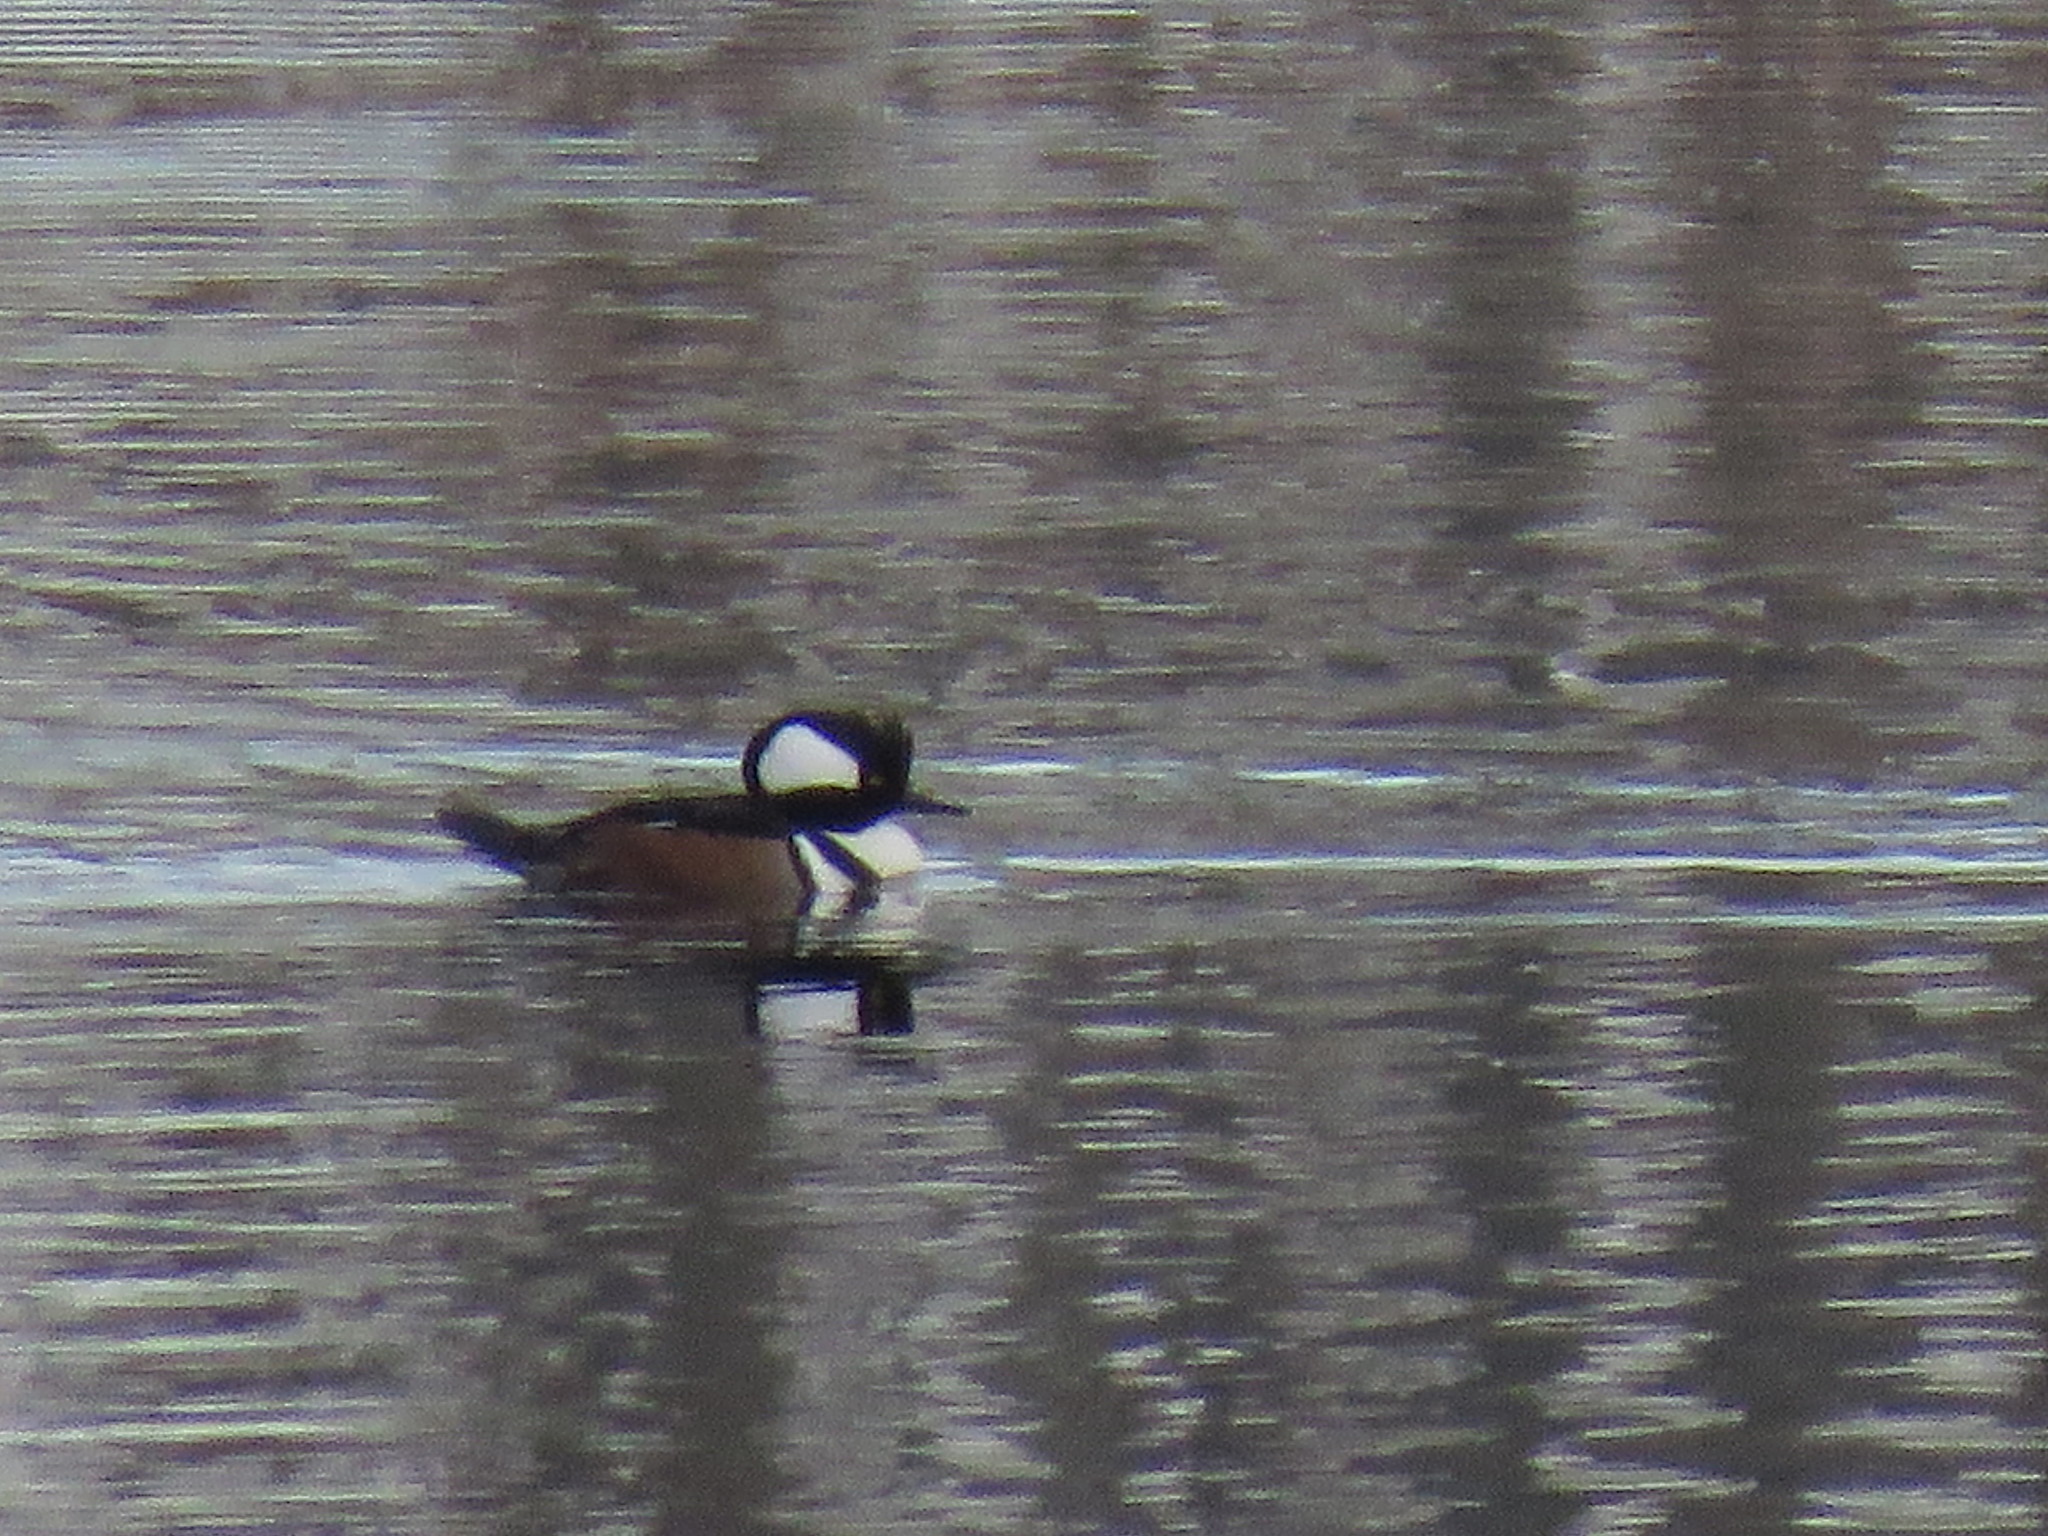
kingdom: Animalia
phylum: Chordata
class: Aves
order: Anseriformes
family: Anatidae
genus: Lophodytes
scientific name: Lophodytes cucullatus
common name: Hooded merganser
